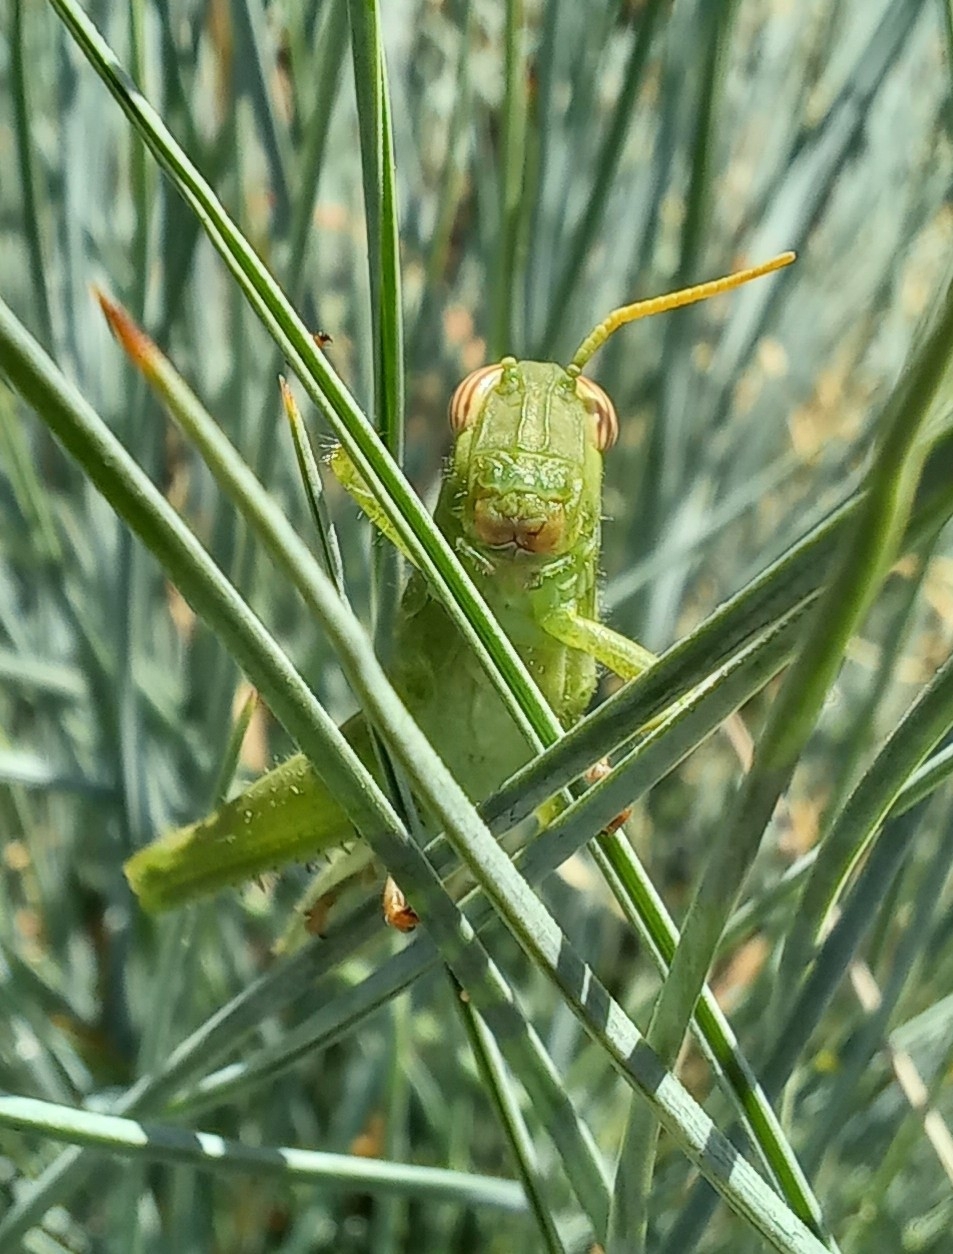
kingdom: Animalia
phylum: Arthropoda
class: Insecta
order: Orthoptera
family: Acrididae
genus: Anacridium
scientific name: Anacridium aegyptium
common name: Egyptian grasshopper
